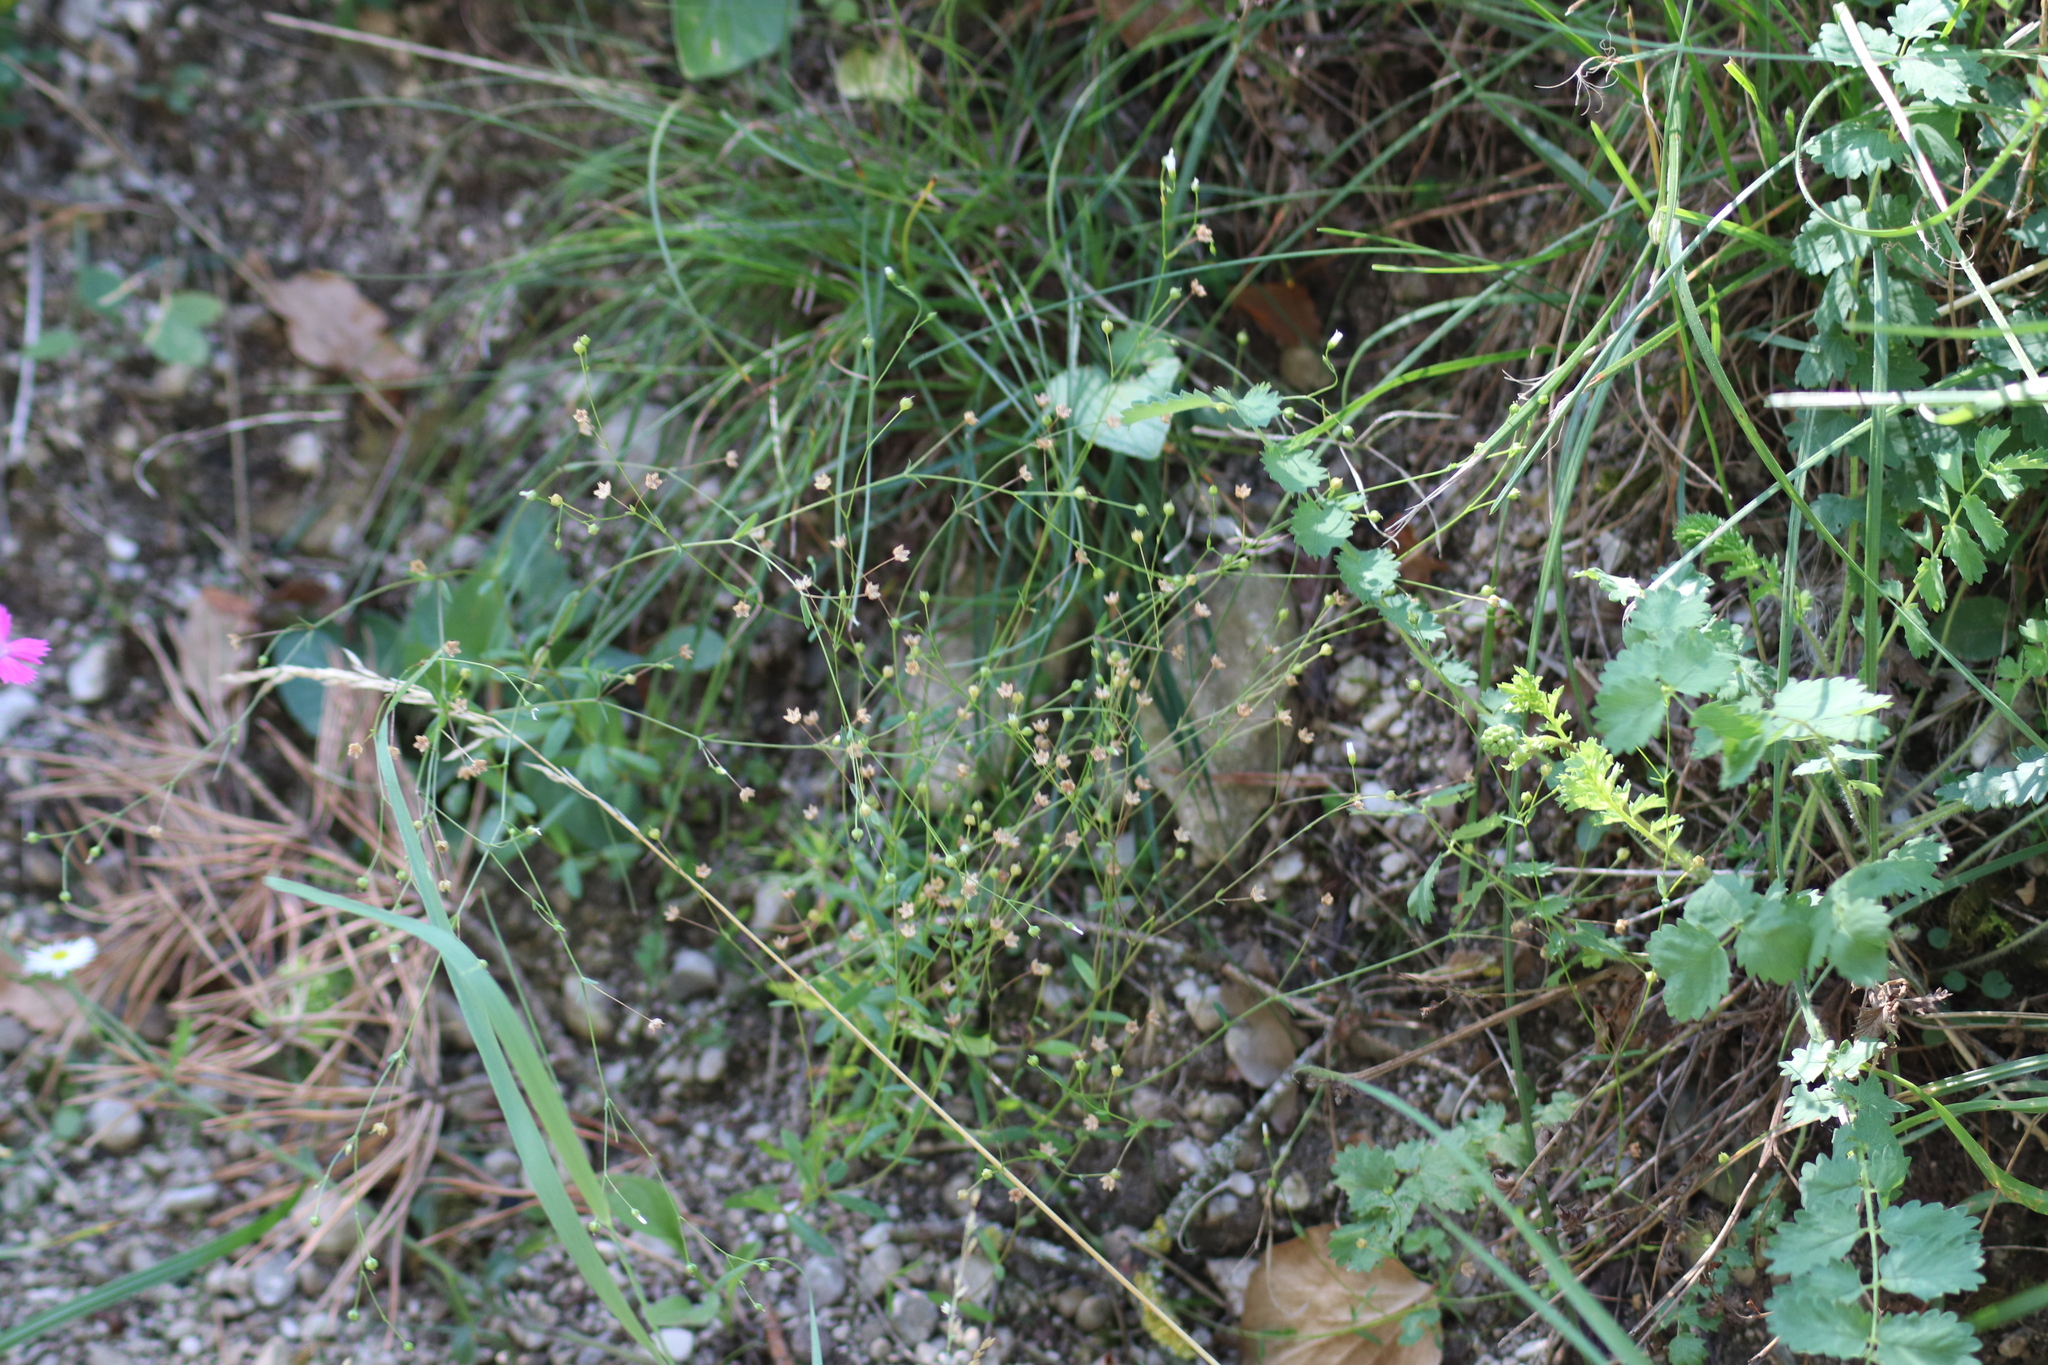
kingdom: Plantae
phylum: Tracheophyta
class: Magnoliopsida
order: Malpighiales
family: Linaceae
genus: Linum
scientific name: Linum catharticum
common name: Fairy flax
